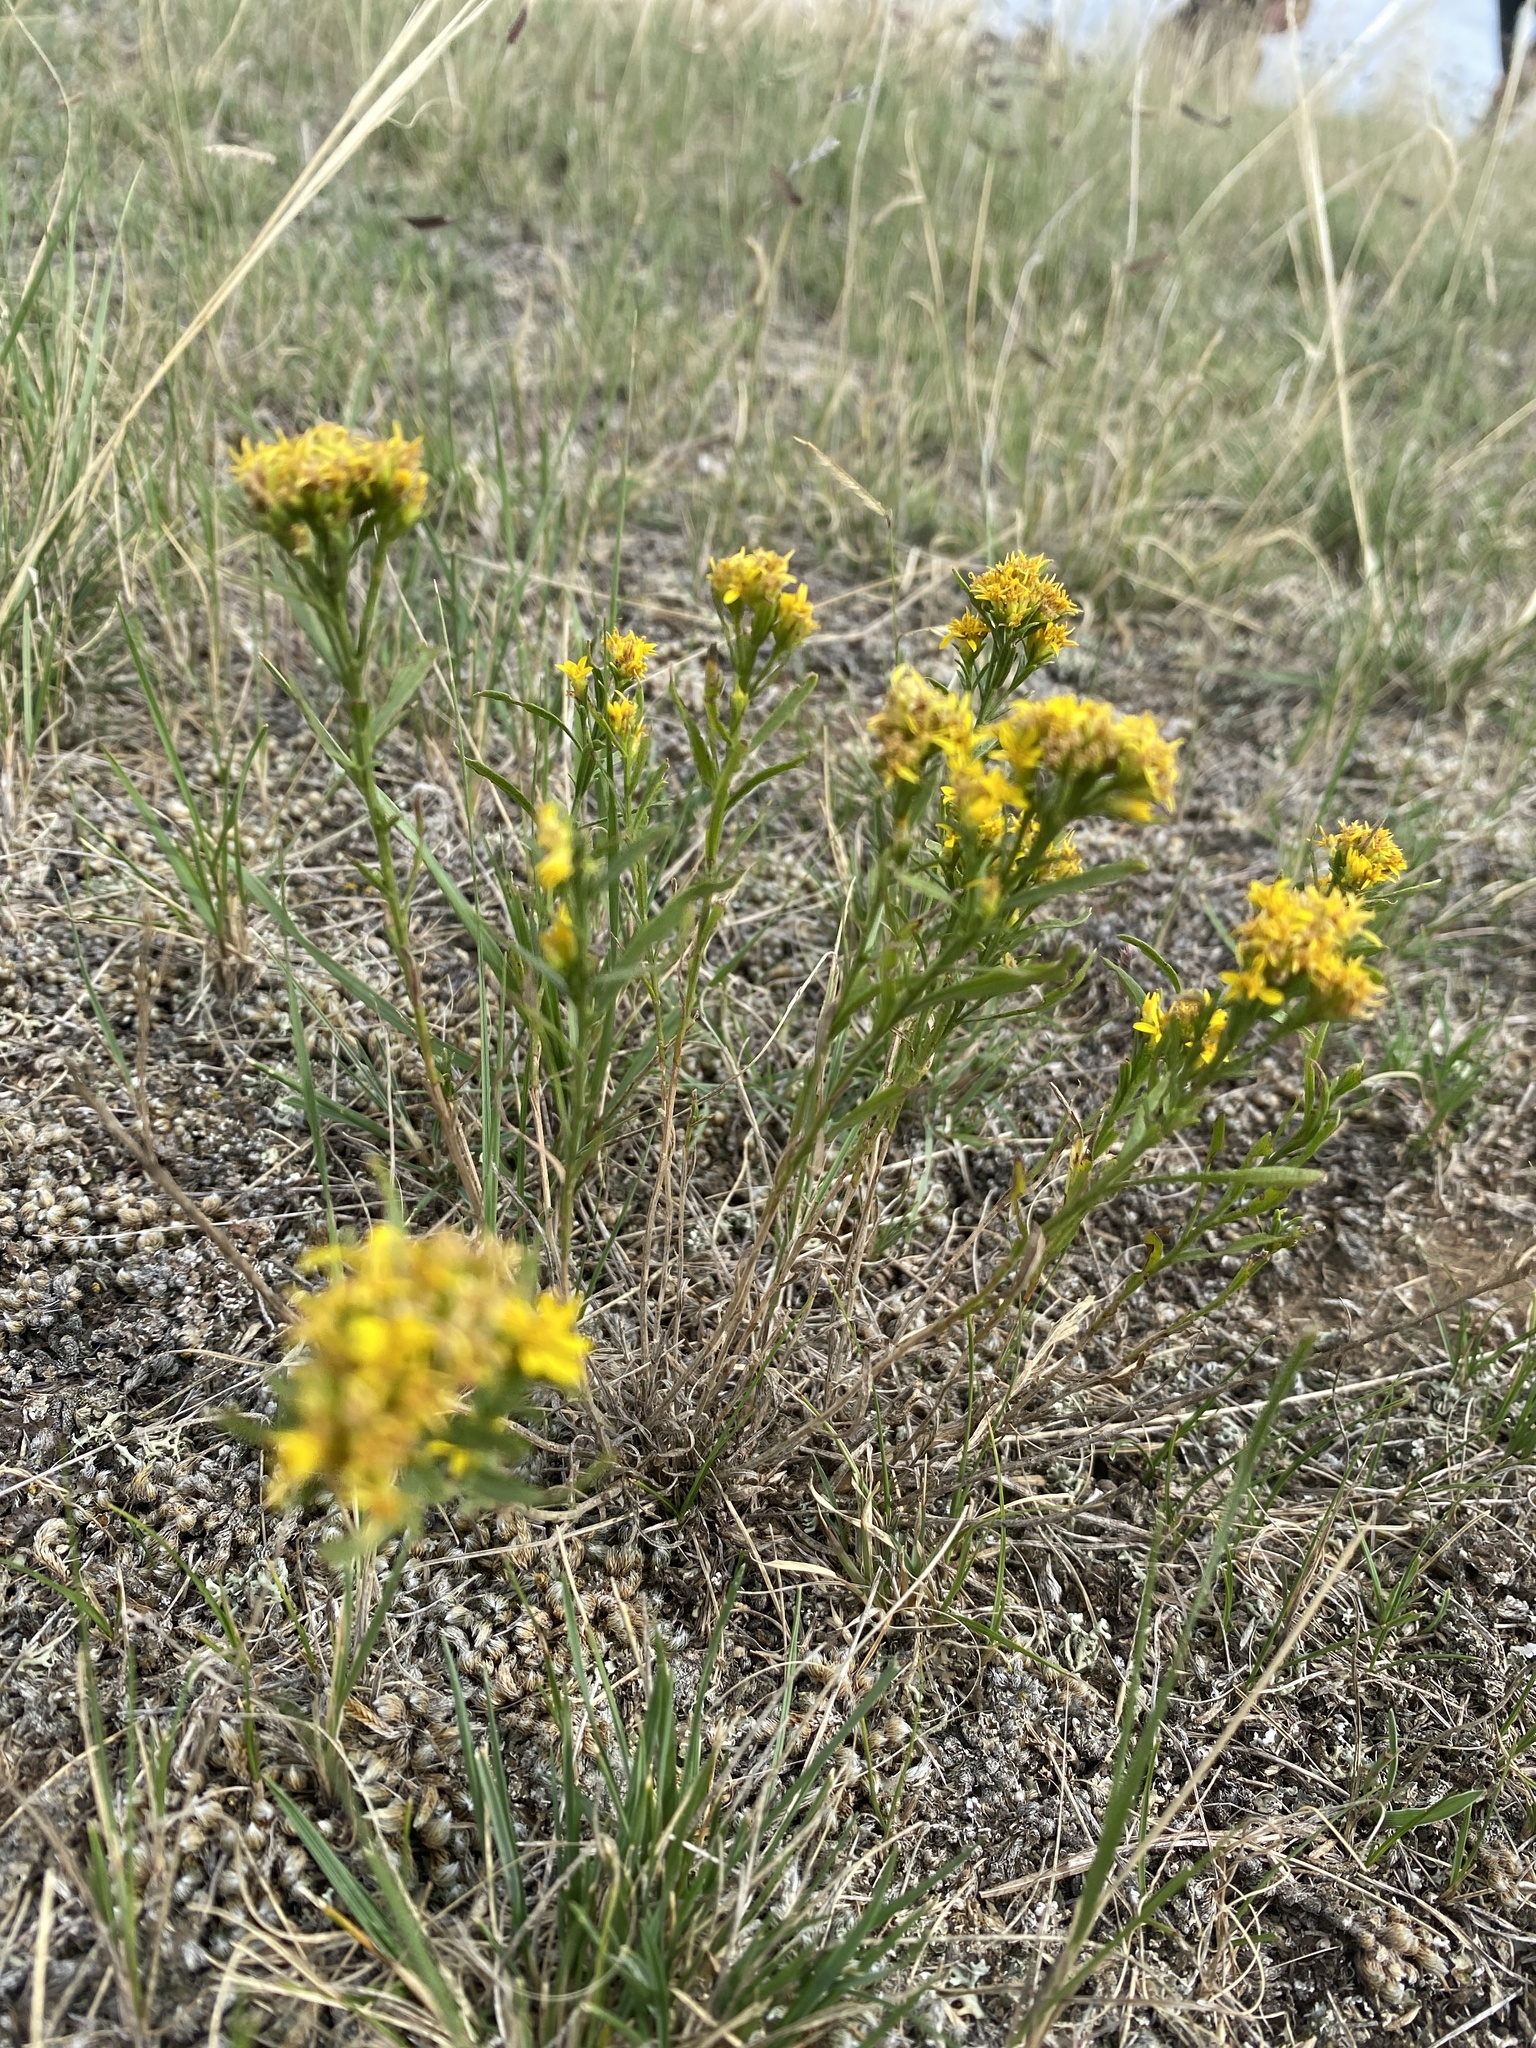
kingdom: Plantae
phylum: Tracheophyta
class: Magnoliopsida
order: Asterales
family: Asteraceae
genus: Gutierrezia
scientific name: Gutierrezia sarothrae
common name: Broom snakeweed
